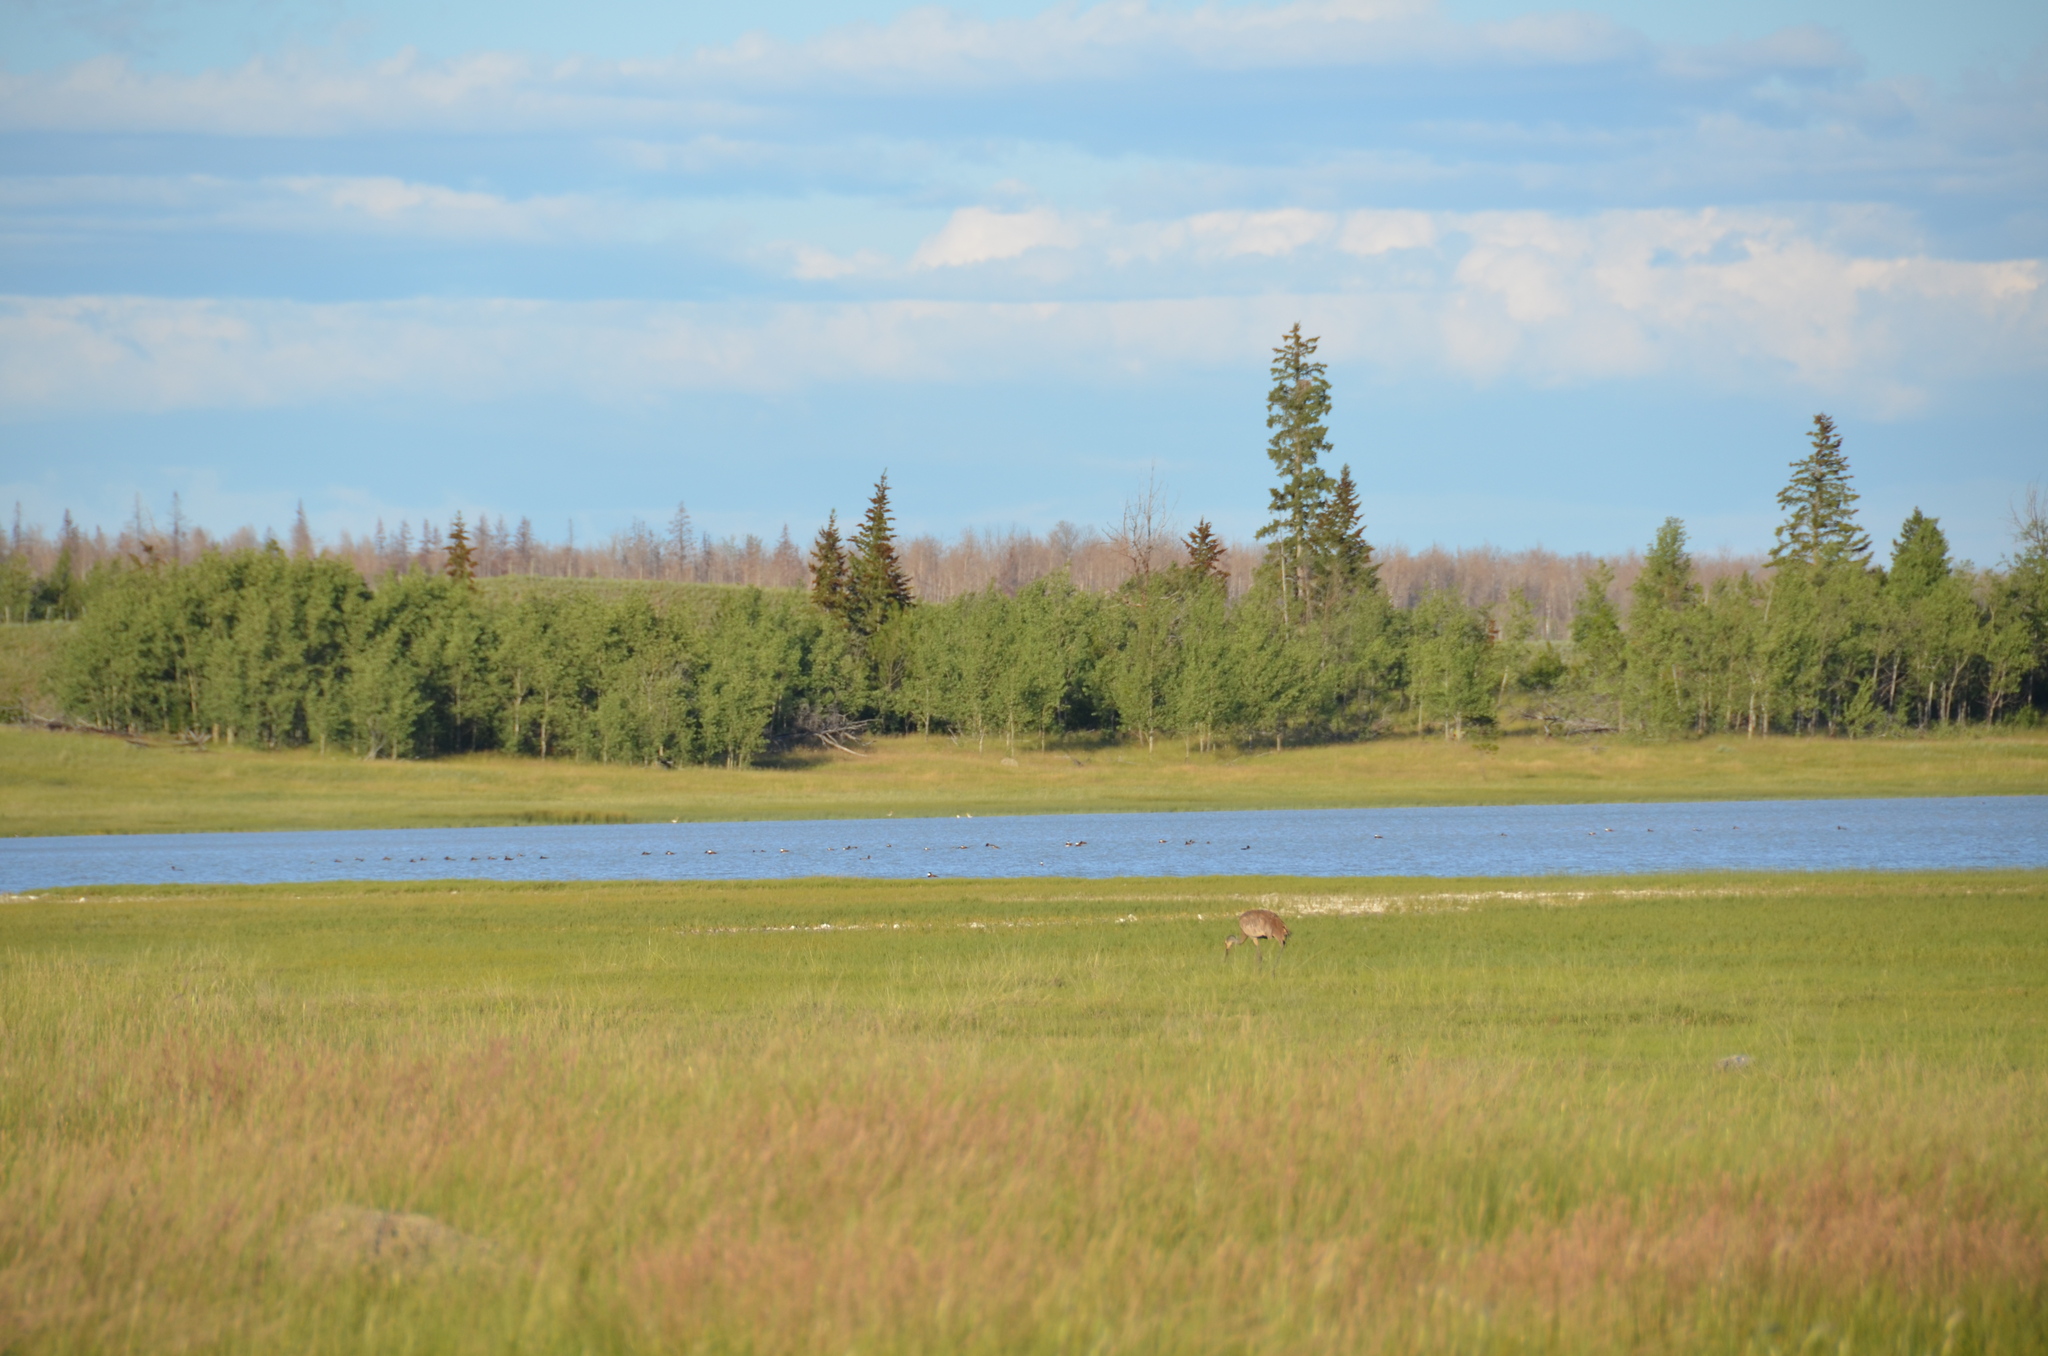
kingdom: Animalia
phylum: Chordata
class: Aves
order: Anseriformes
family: Anatidae
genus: Oxyura
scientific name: Oxyura jamaicensis
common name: Ruddy duck
